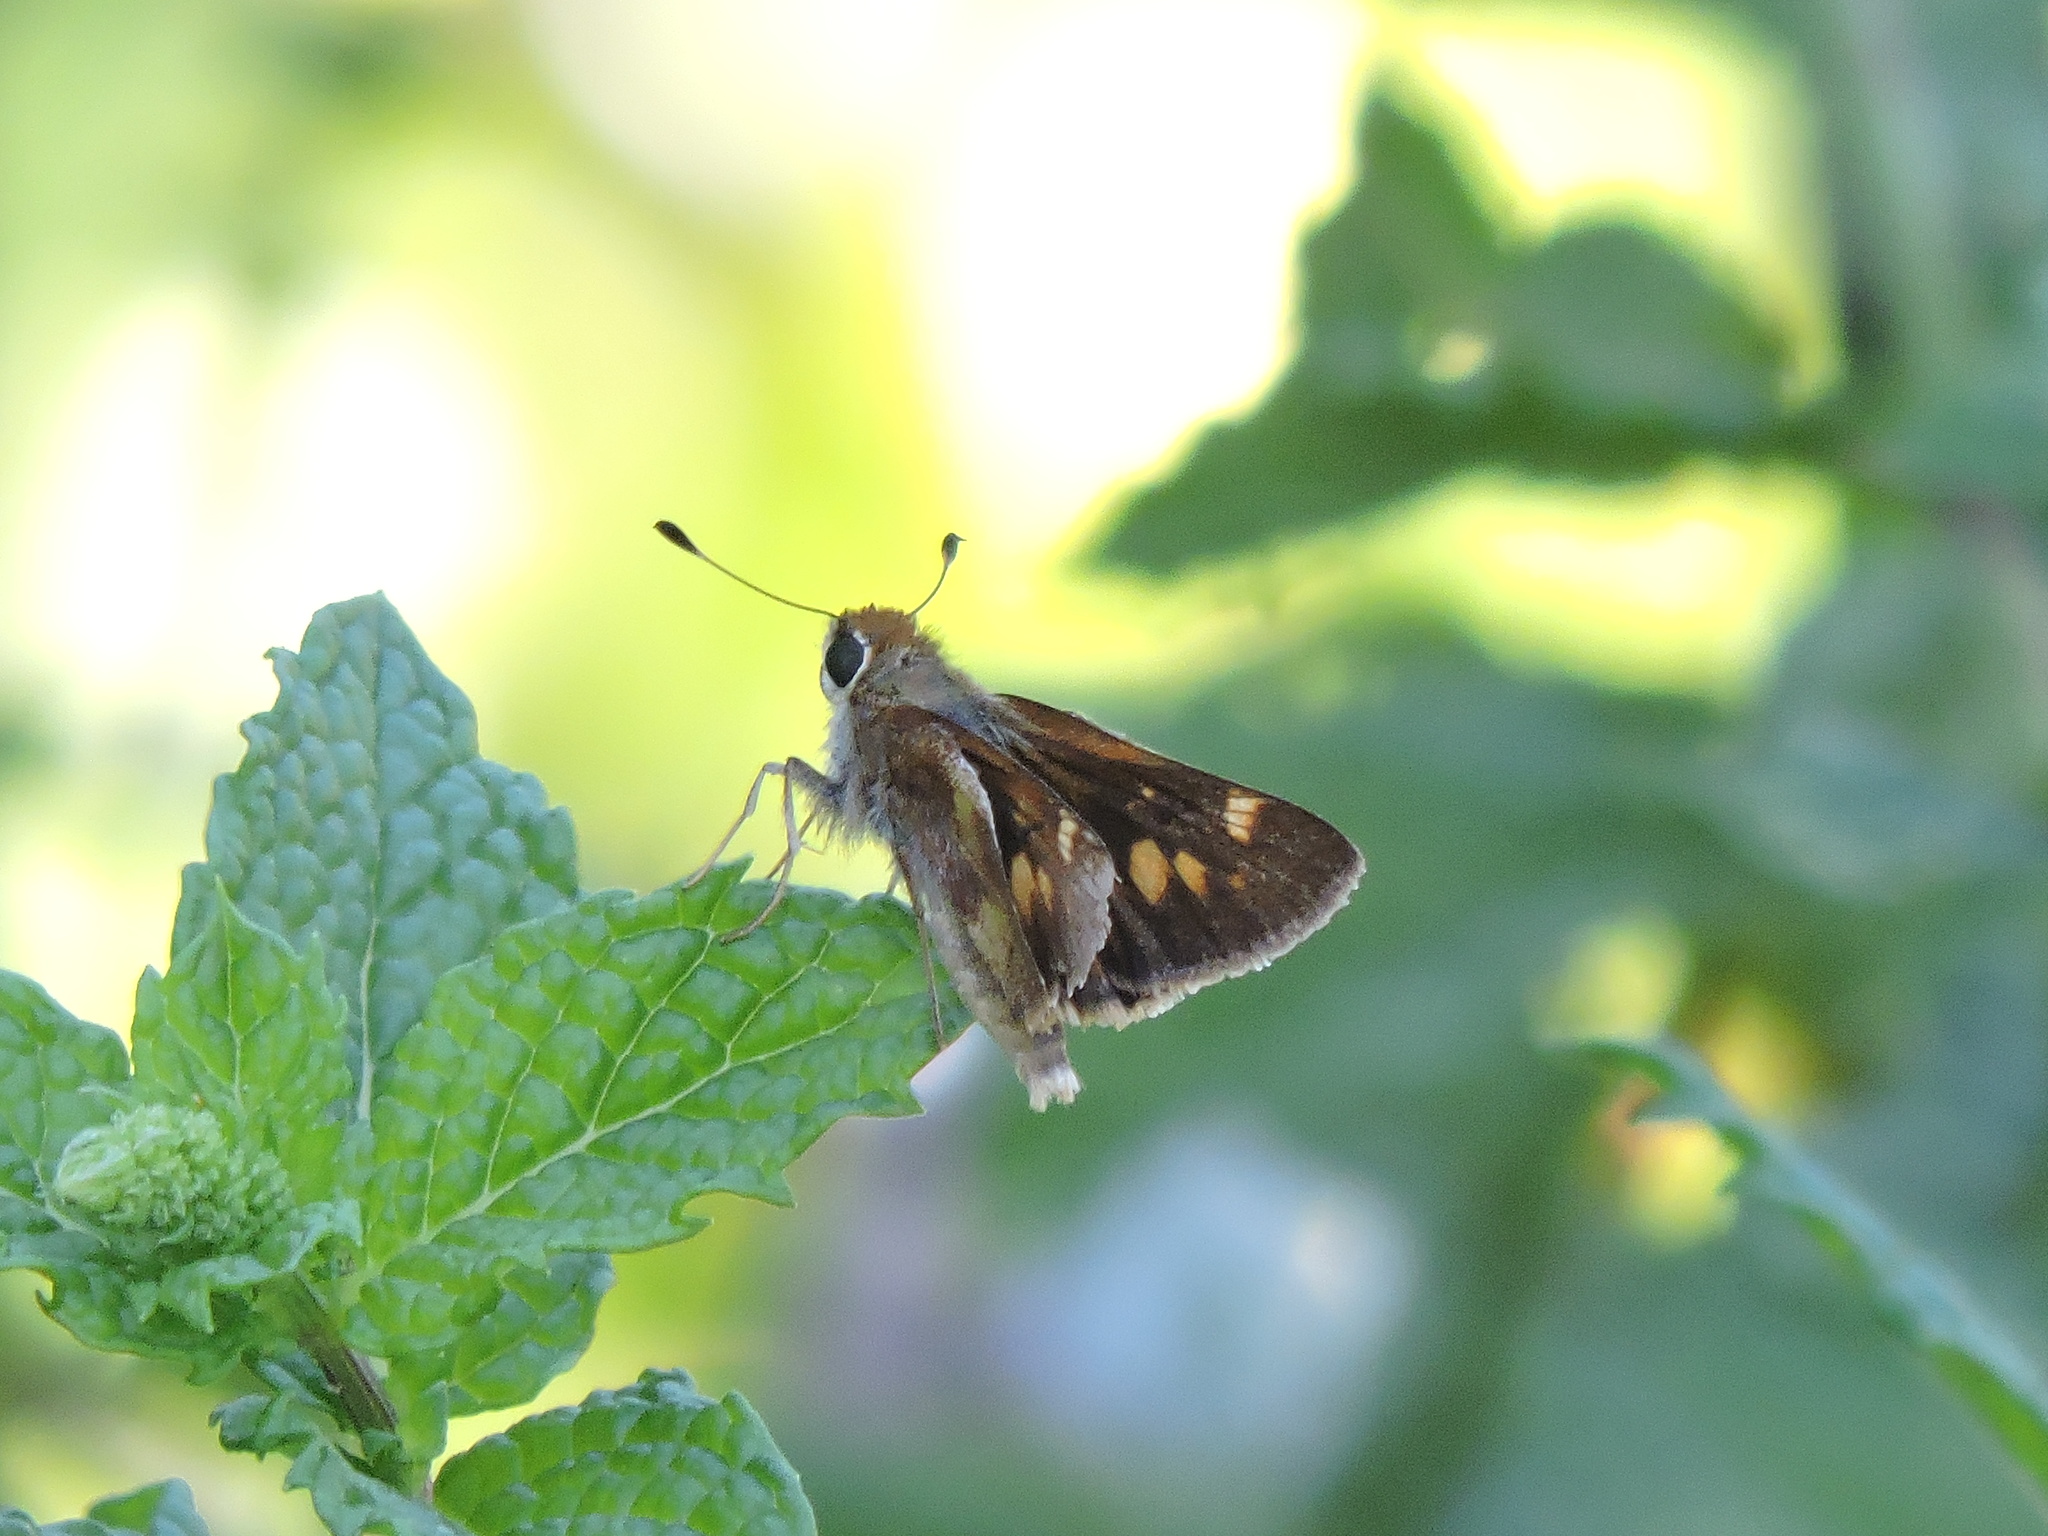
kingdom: Animalia
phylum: Arthropoda
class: Insecta
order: Lepidoptera
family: Hesperiidae
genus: Lon
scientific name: Lon melane
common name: Umber skipper
